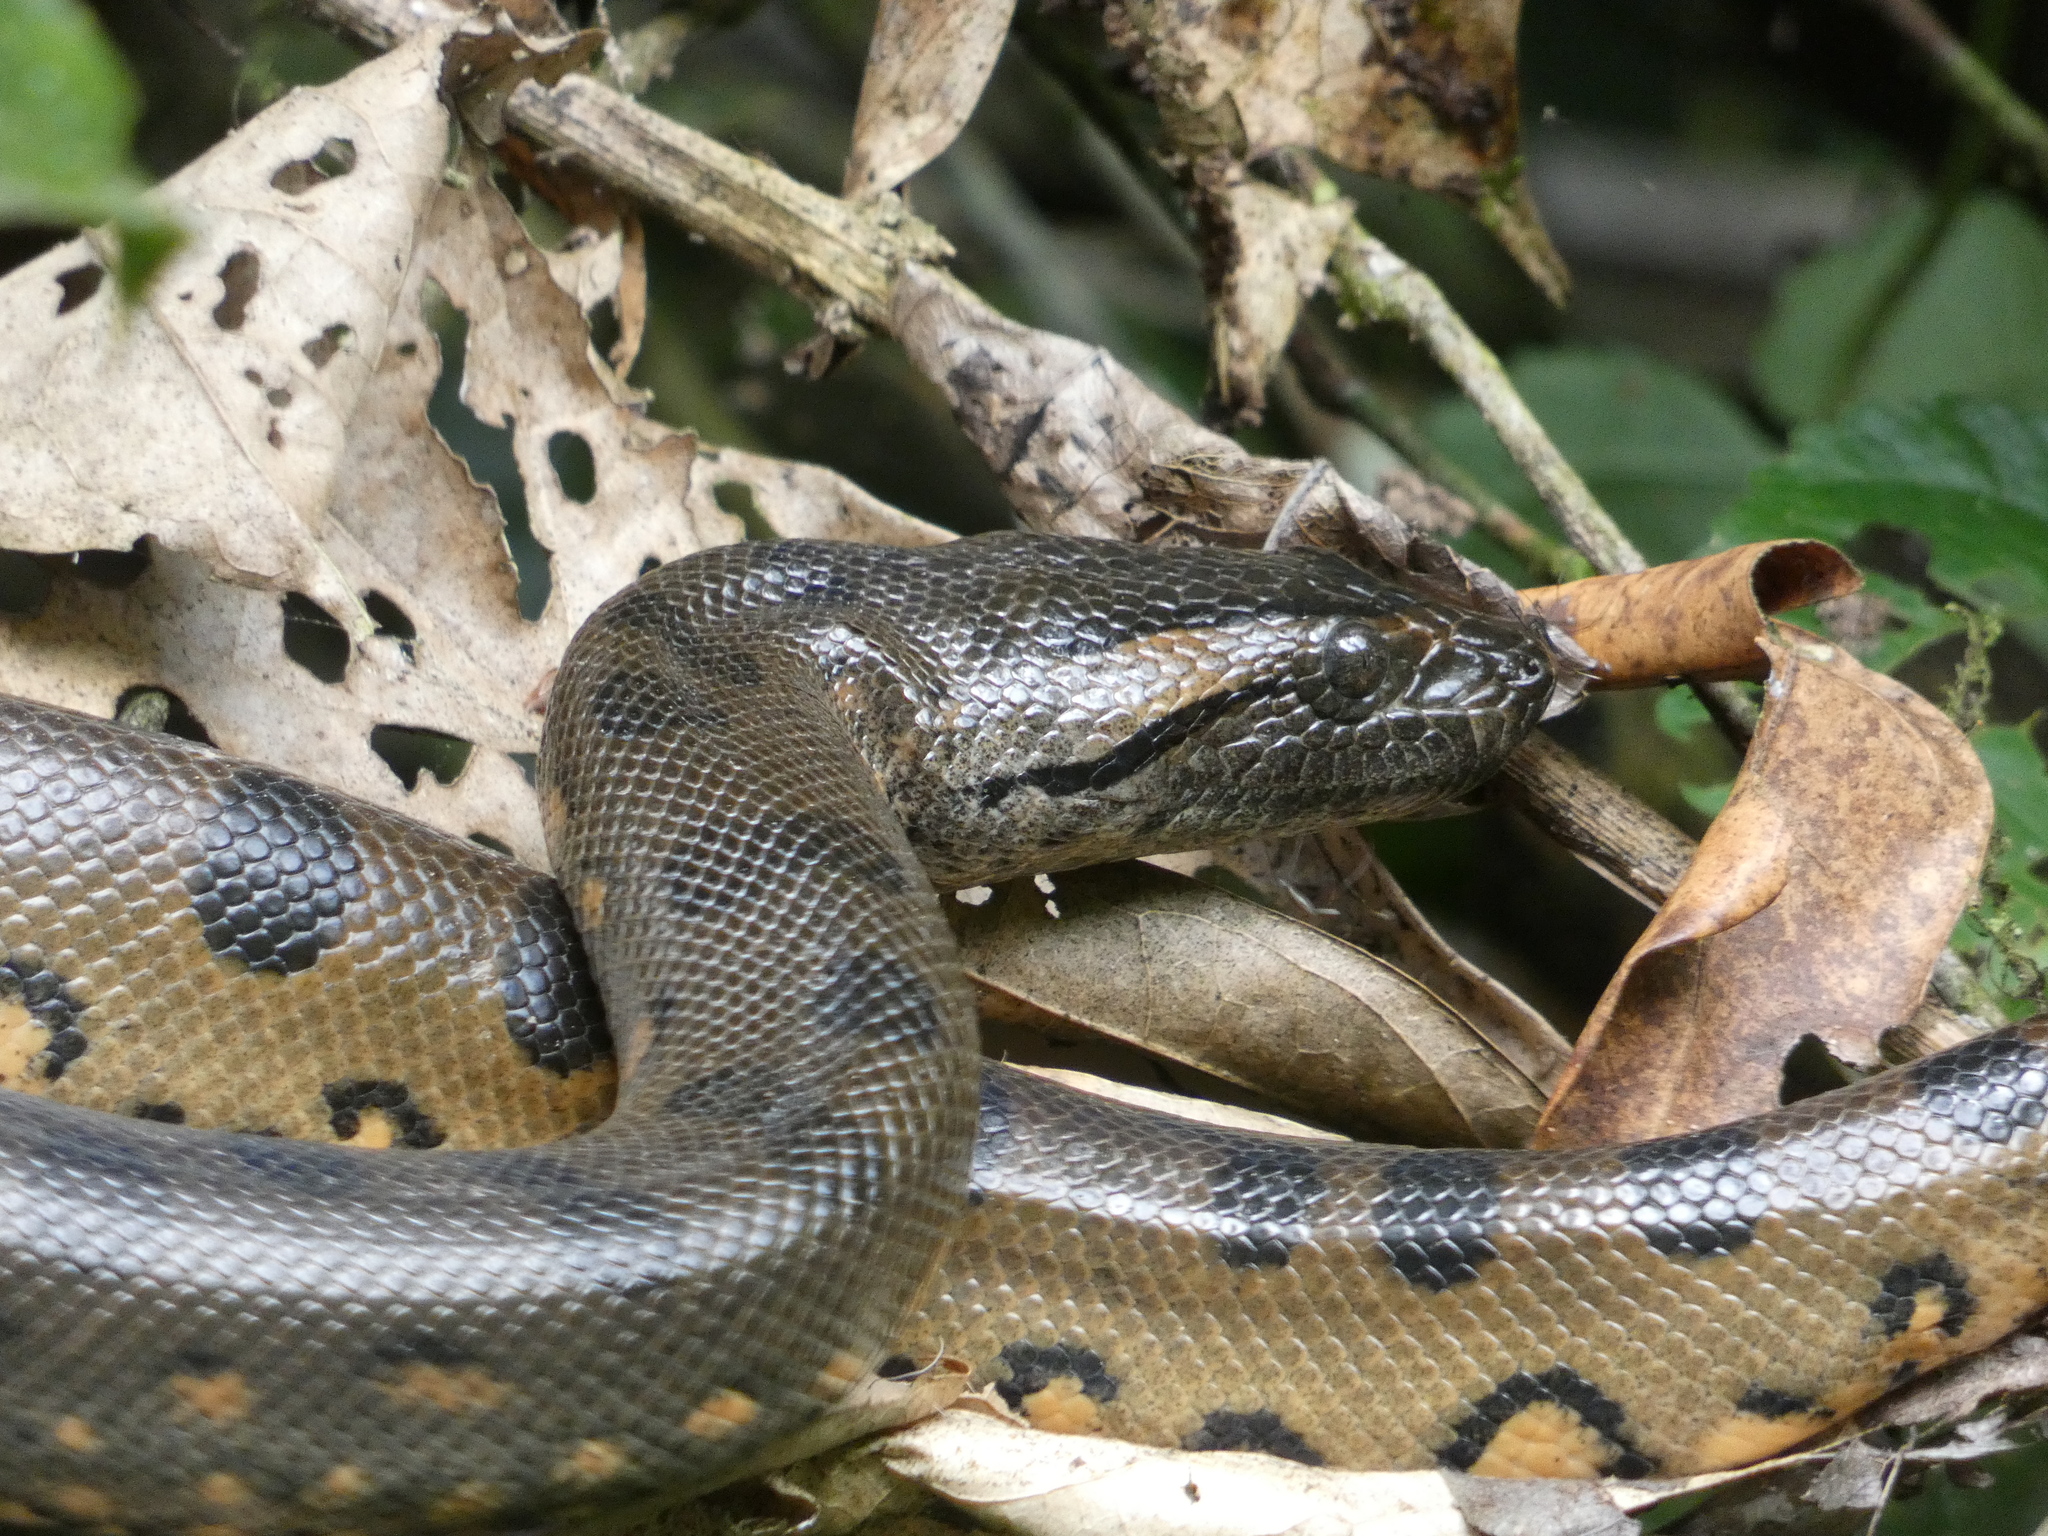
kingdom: Animalia
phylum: Chordata
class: Squamata
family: Boidae
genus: Eunectes
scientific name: Eunectes murinus
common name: Anaconda
